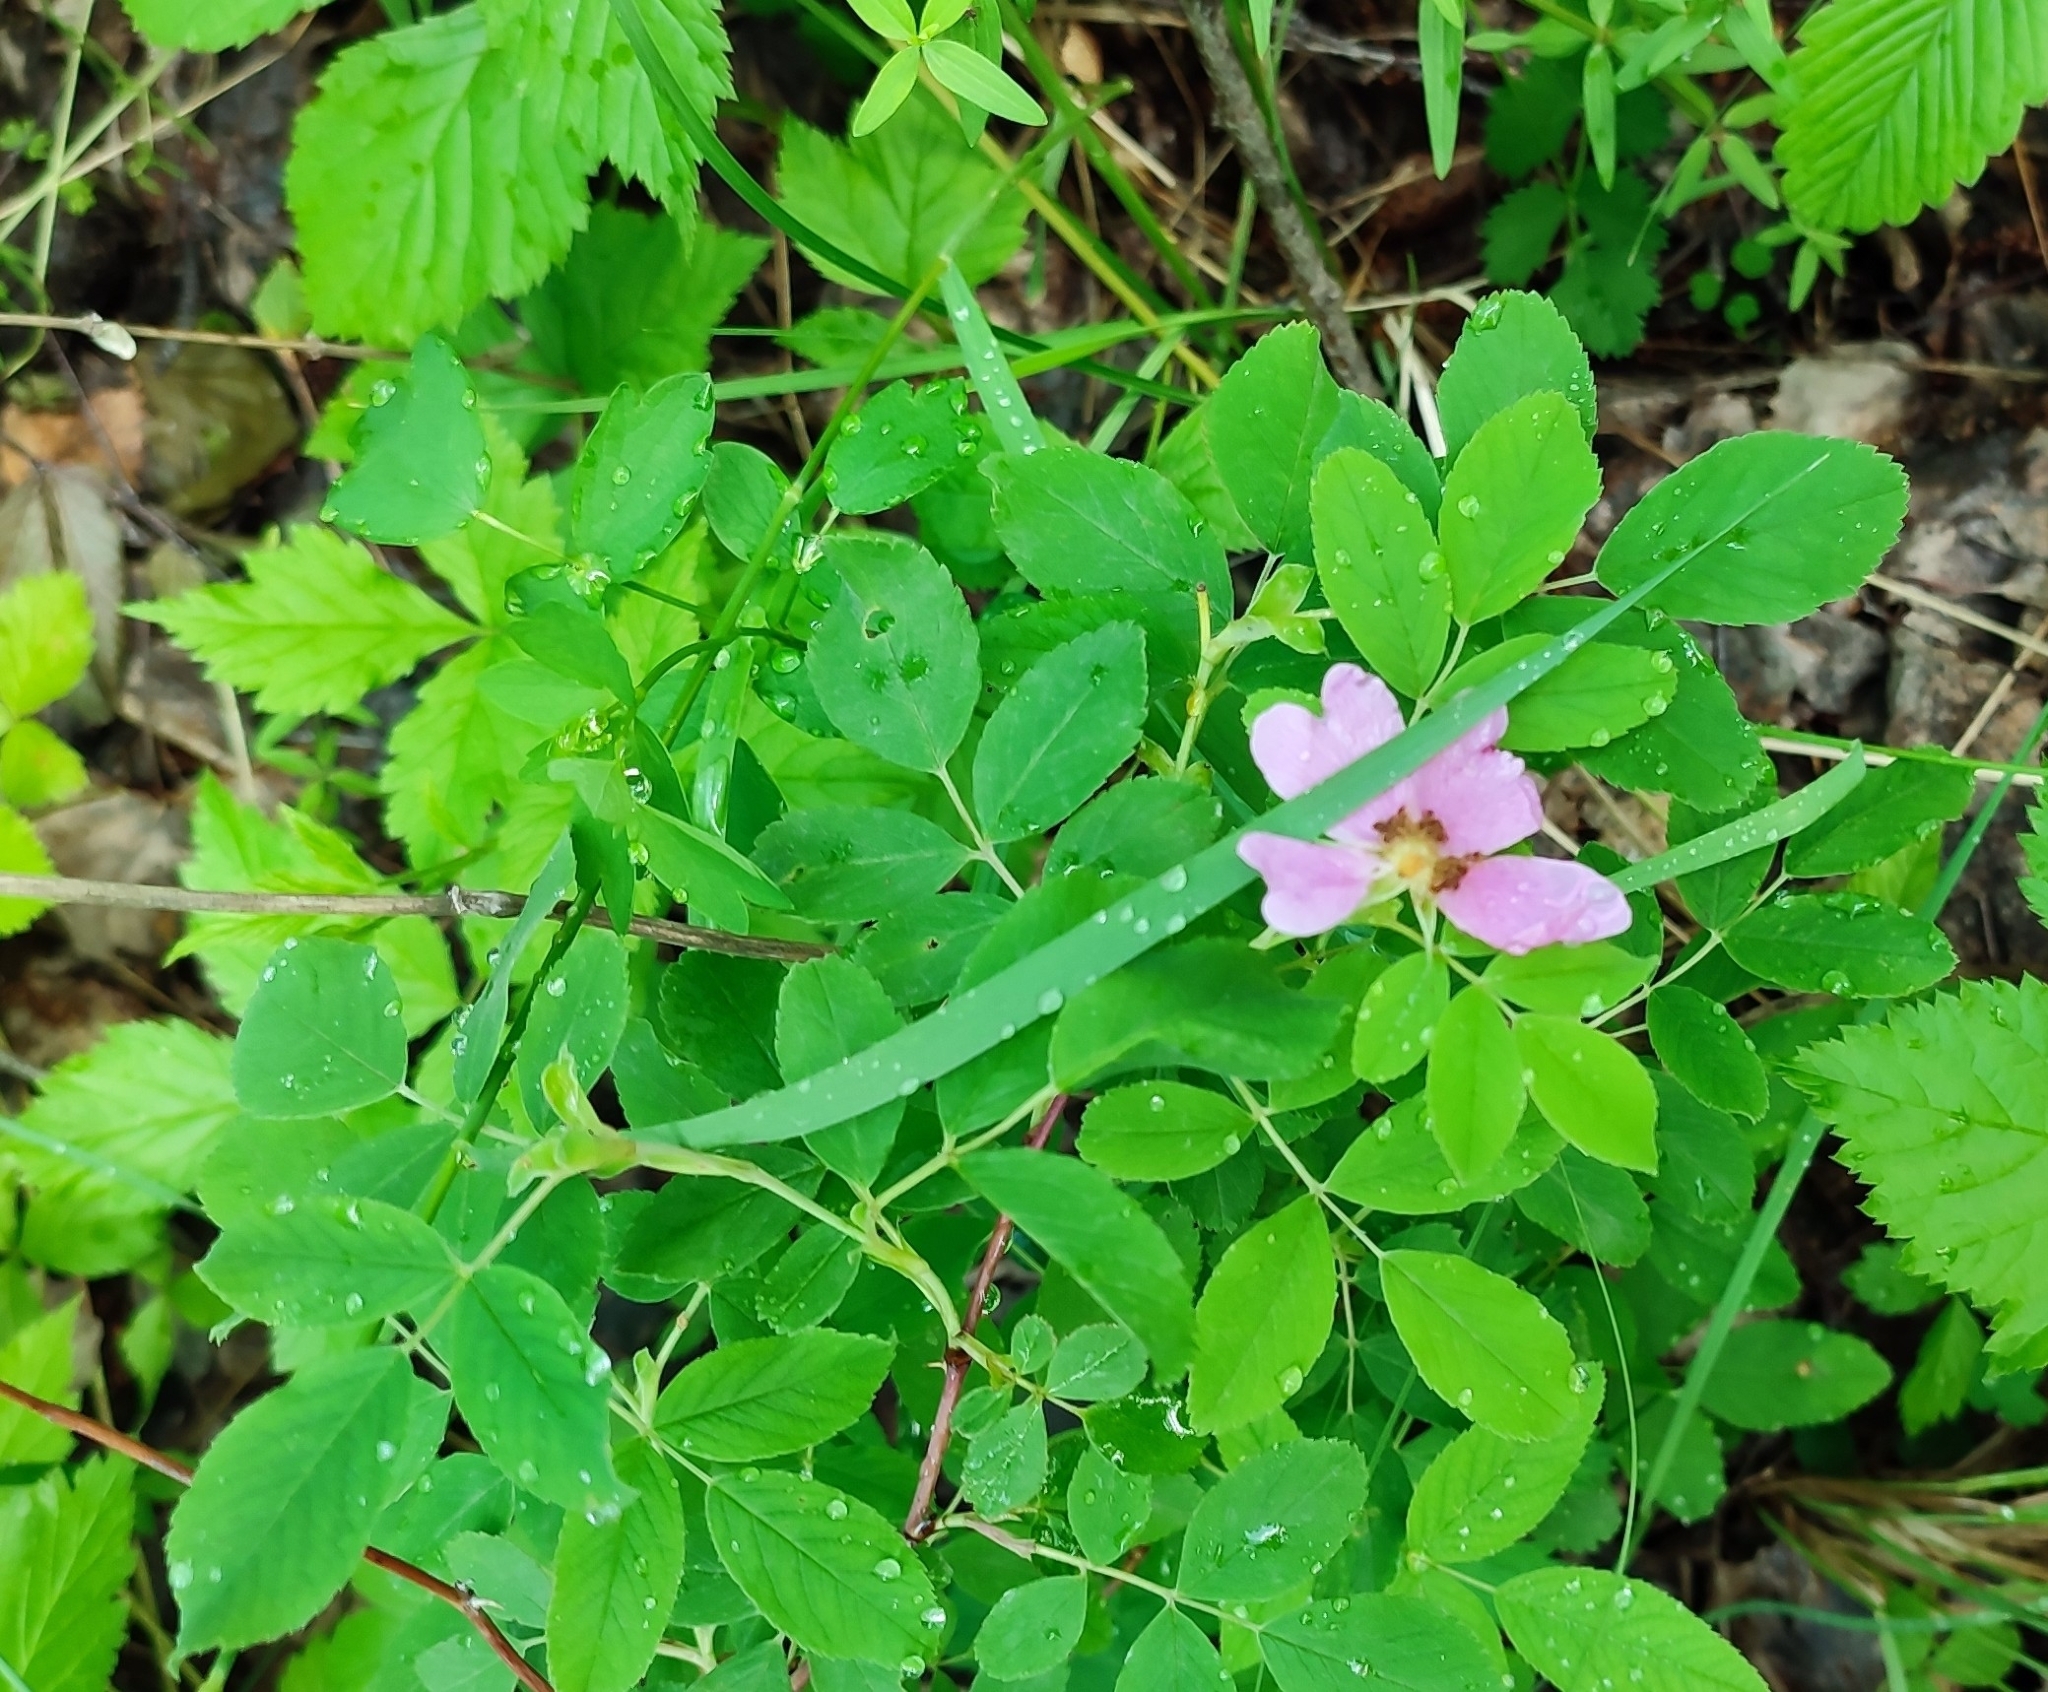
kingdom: Plantae
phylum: Tracheophyta
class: Magnoliopsida
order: Rosales
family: Rosaceae
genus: Rosa
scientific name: Rosa majalis
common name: Cinnamon rose
